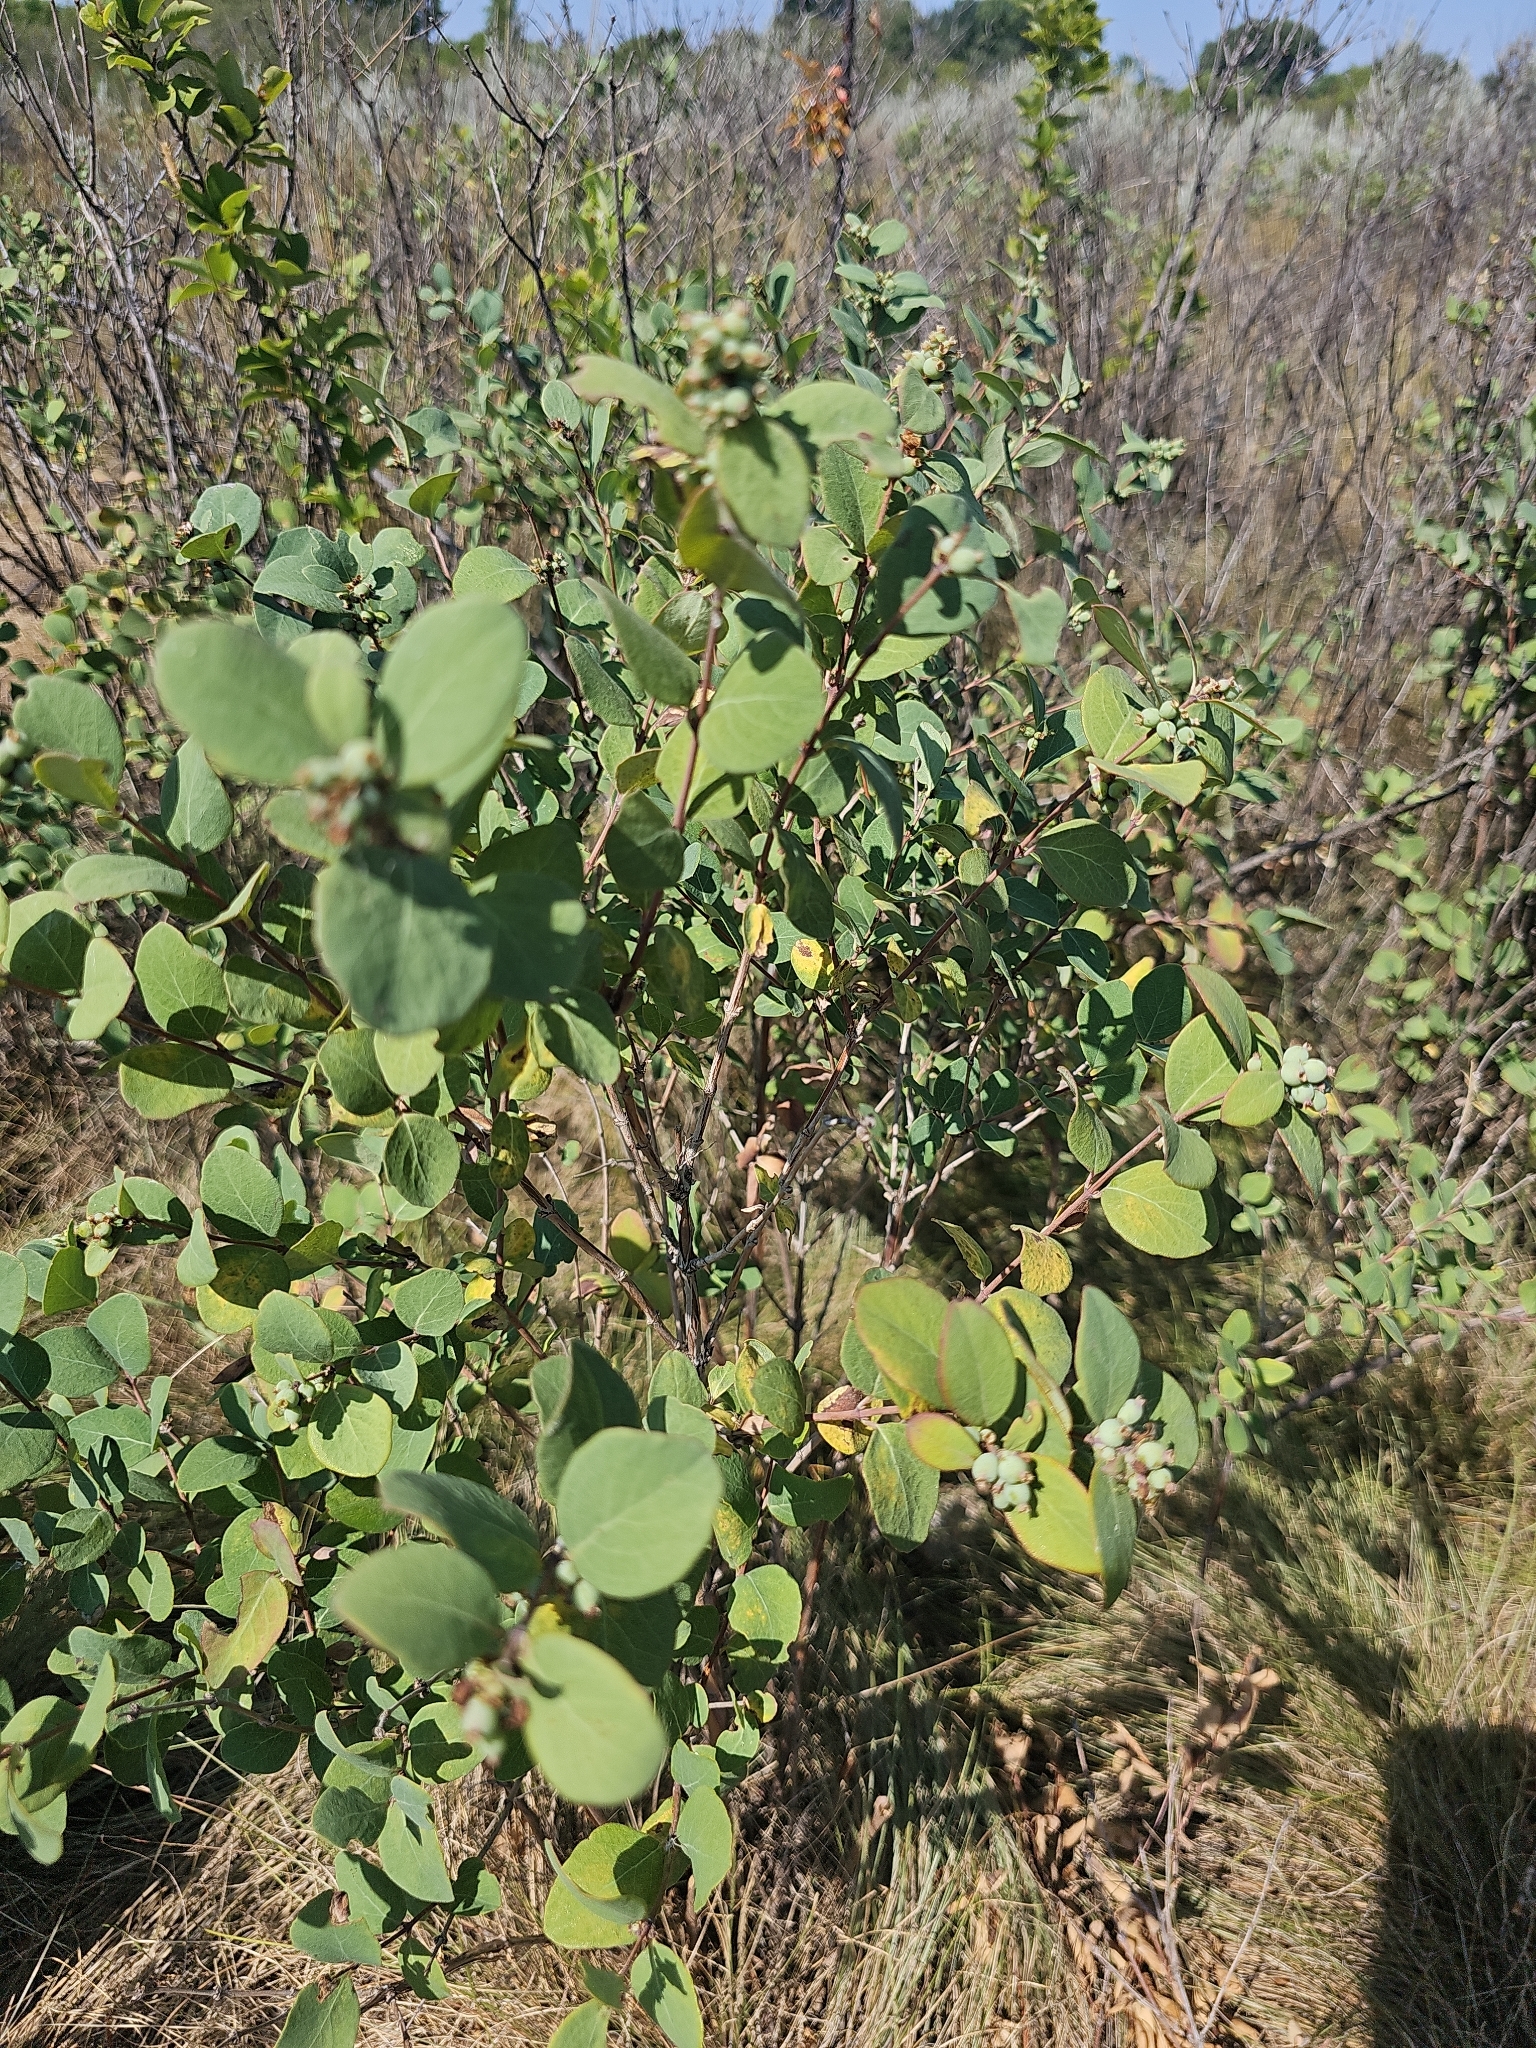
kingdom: Plantae
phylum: Tracheophyta
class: Magnoliopsida
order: Dipsacales
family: Caprifoliaceae
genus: Symphoricarpos
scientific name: Symphoricarpos occidentalis
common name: Wolfberry
